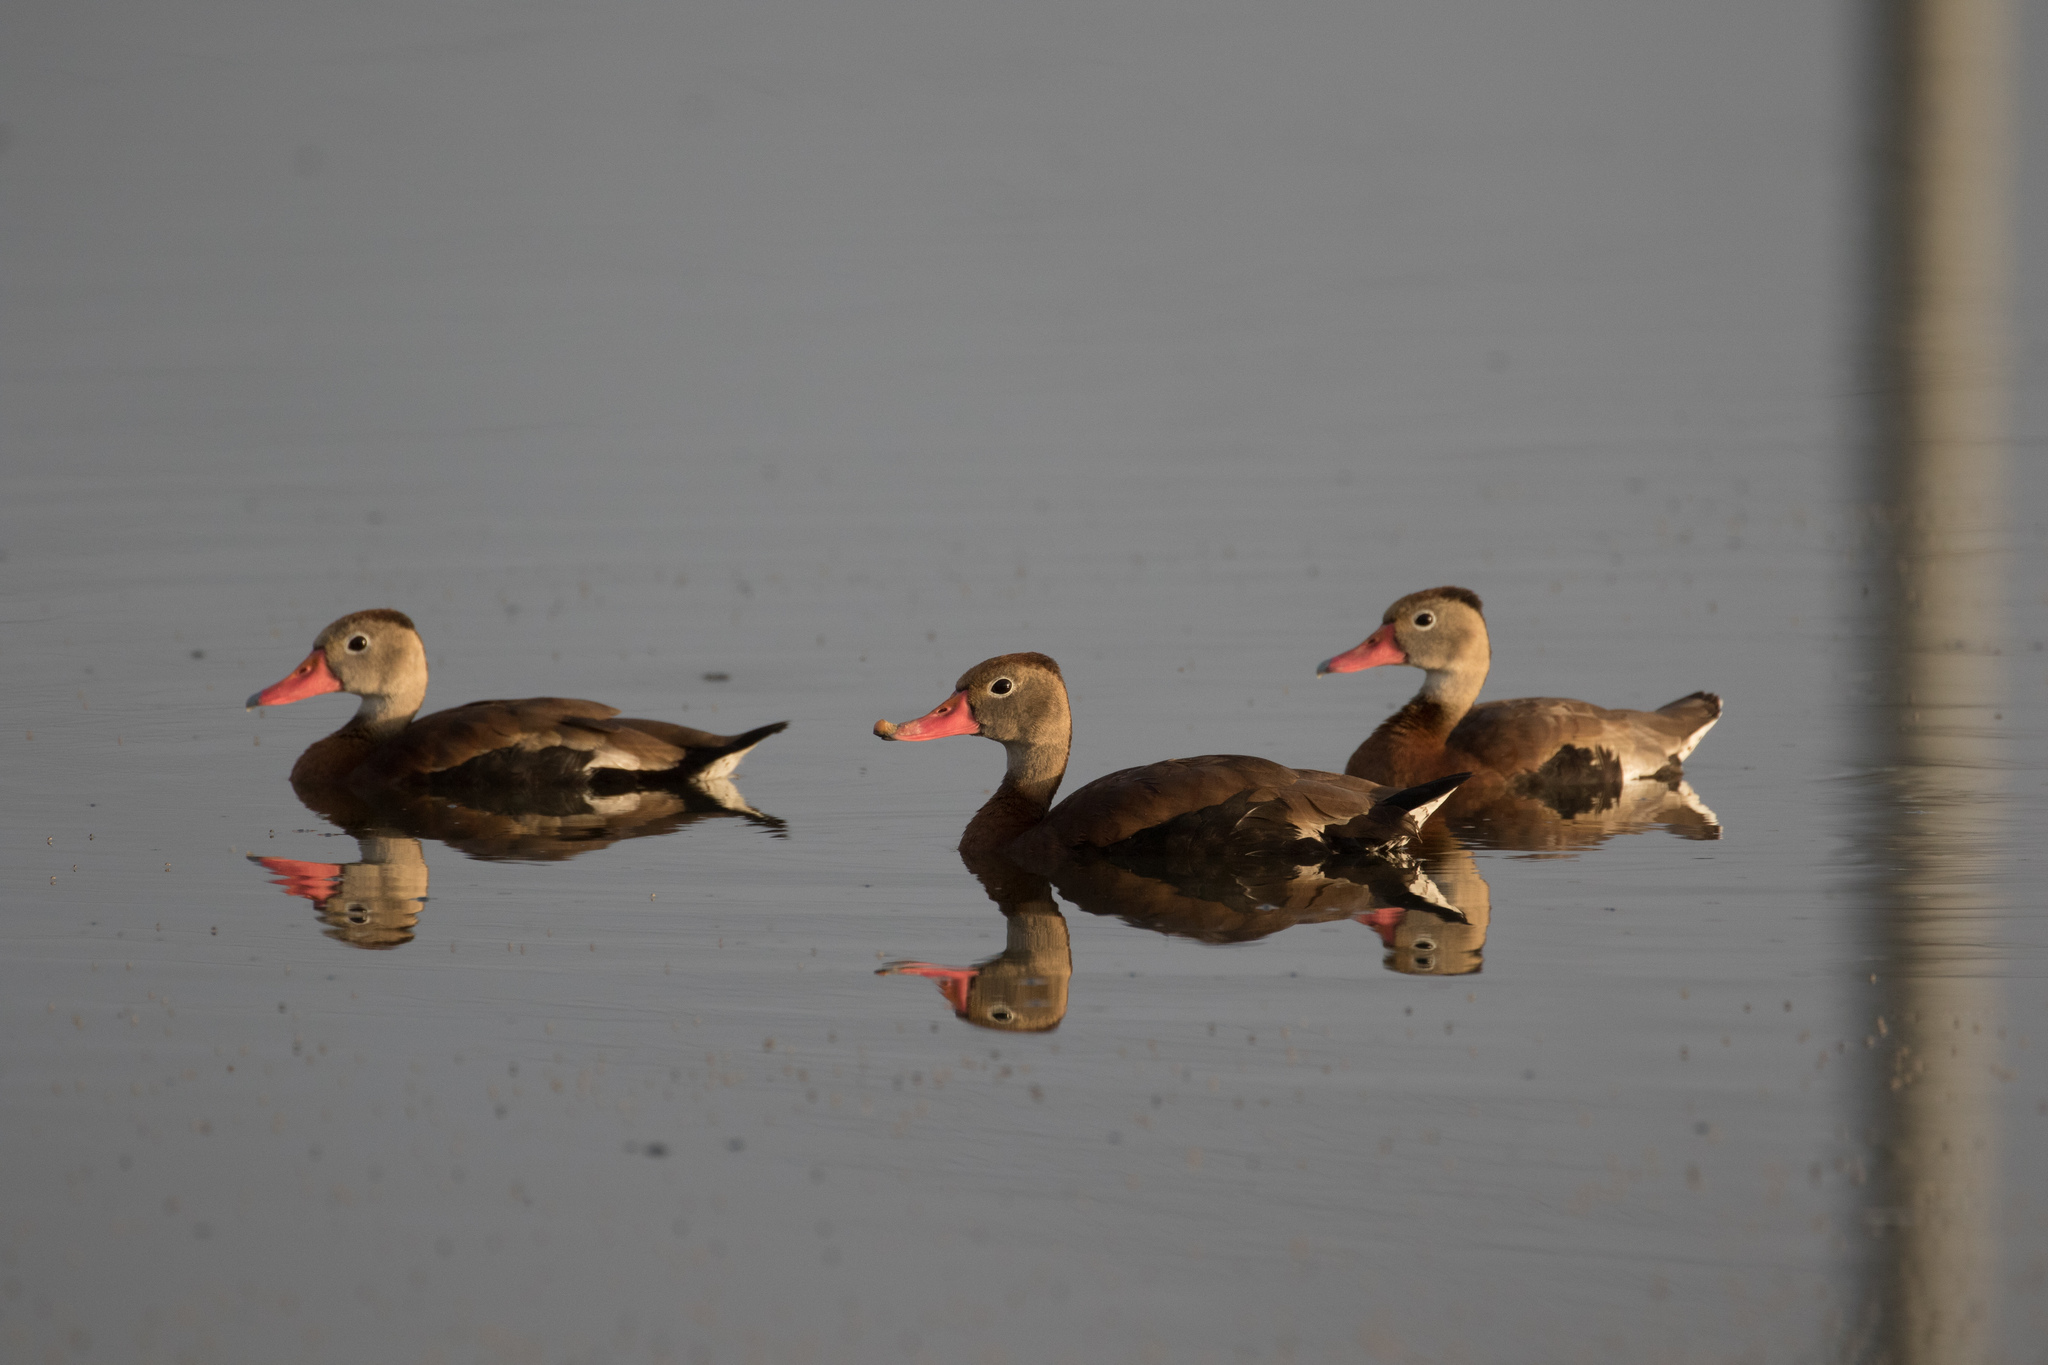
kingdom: Animalia
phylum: Chordata
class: Aves
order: Anseriformes
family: Anatidae
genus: Dendrocygna
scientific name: Dendrocygna autumnalis
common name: Black-bellied whistling duck
